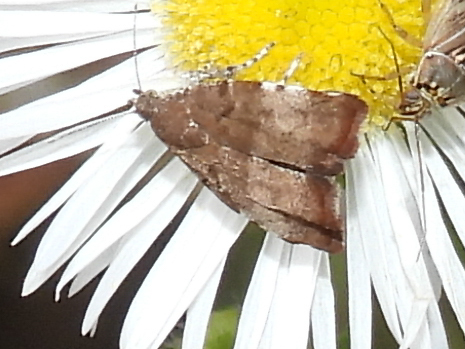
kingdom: Animalia
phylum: Arthropoda
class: Insecta
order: Lepidoptera
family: Choreutidae
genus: Choreutis
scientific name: Choreutis pariana
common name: Apple leaf skeletoniser
